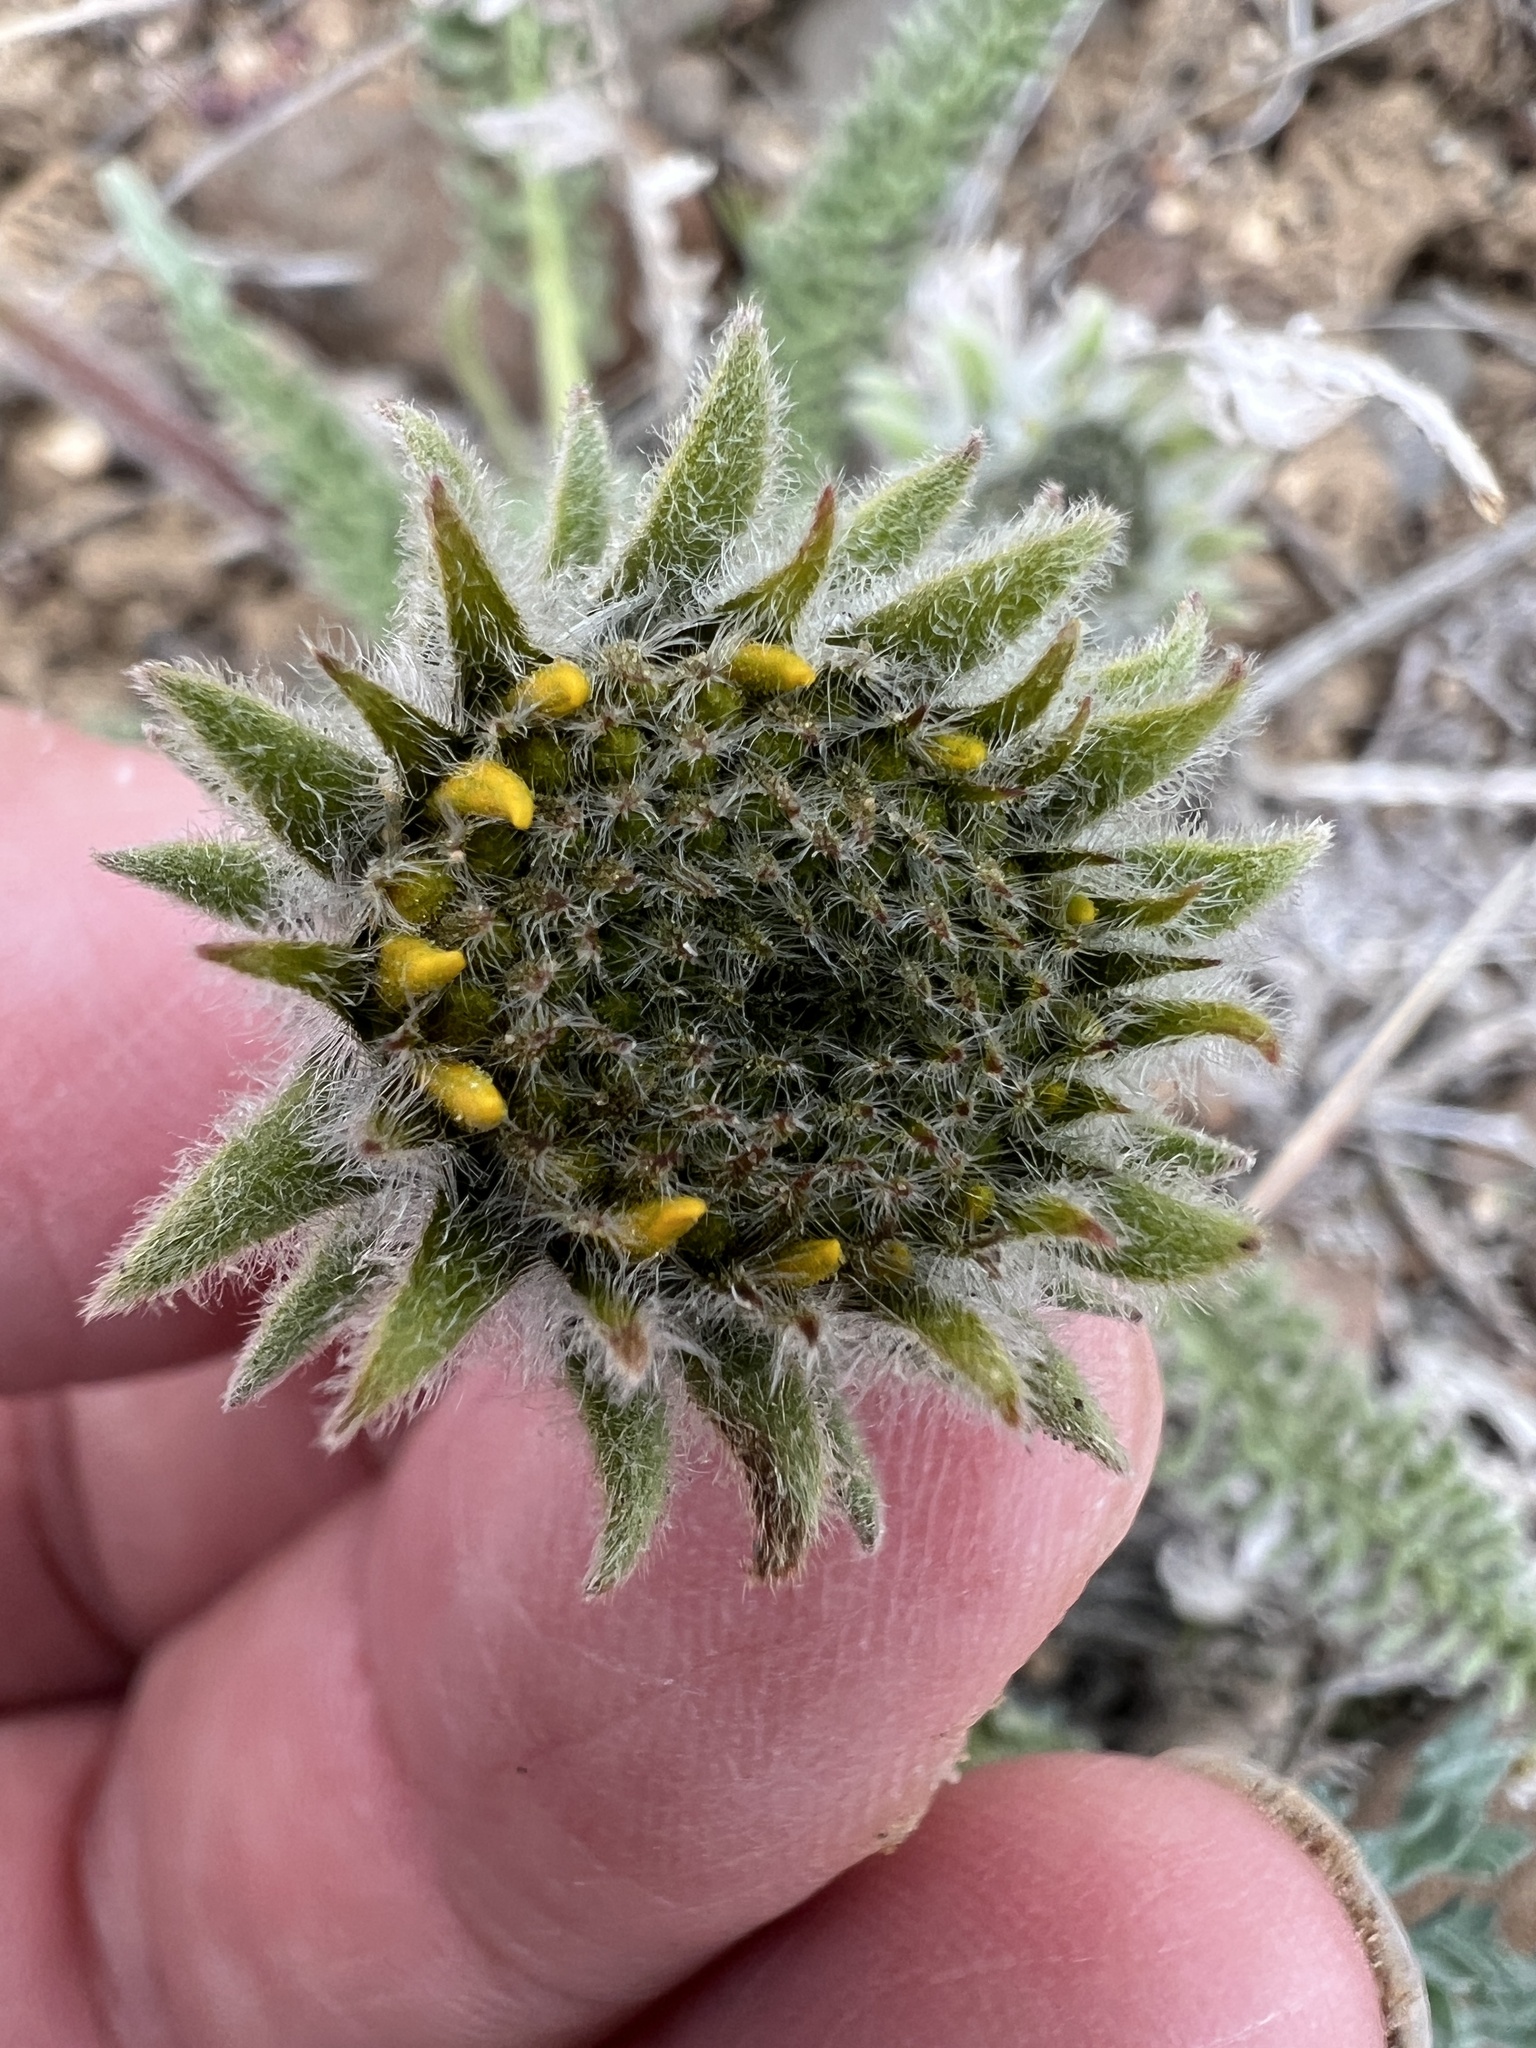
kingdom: Plantae
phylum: Tracheophyta
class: Magnoliopsida
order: Asterales
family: Asteraceae
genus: Balsamorhiza
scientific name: Balsamorhiza hookeri
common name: Hooker's balsamroot
